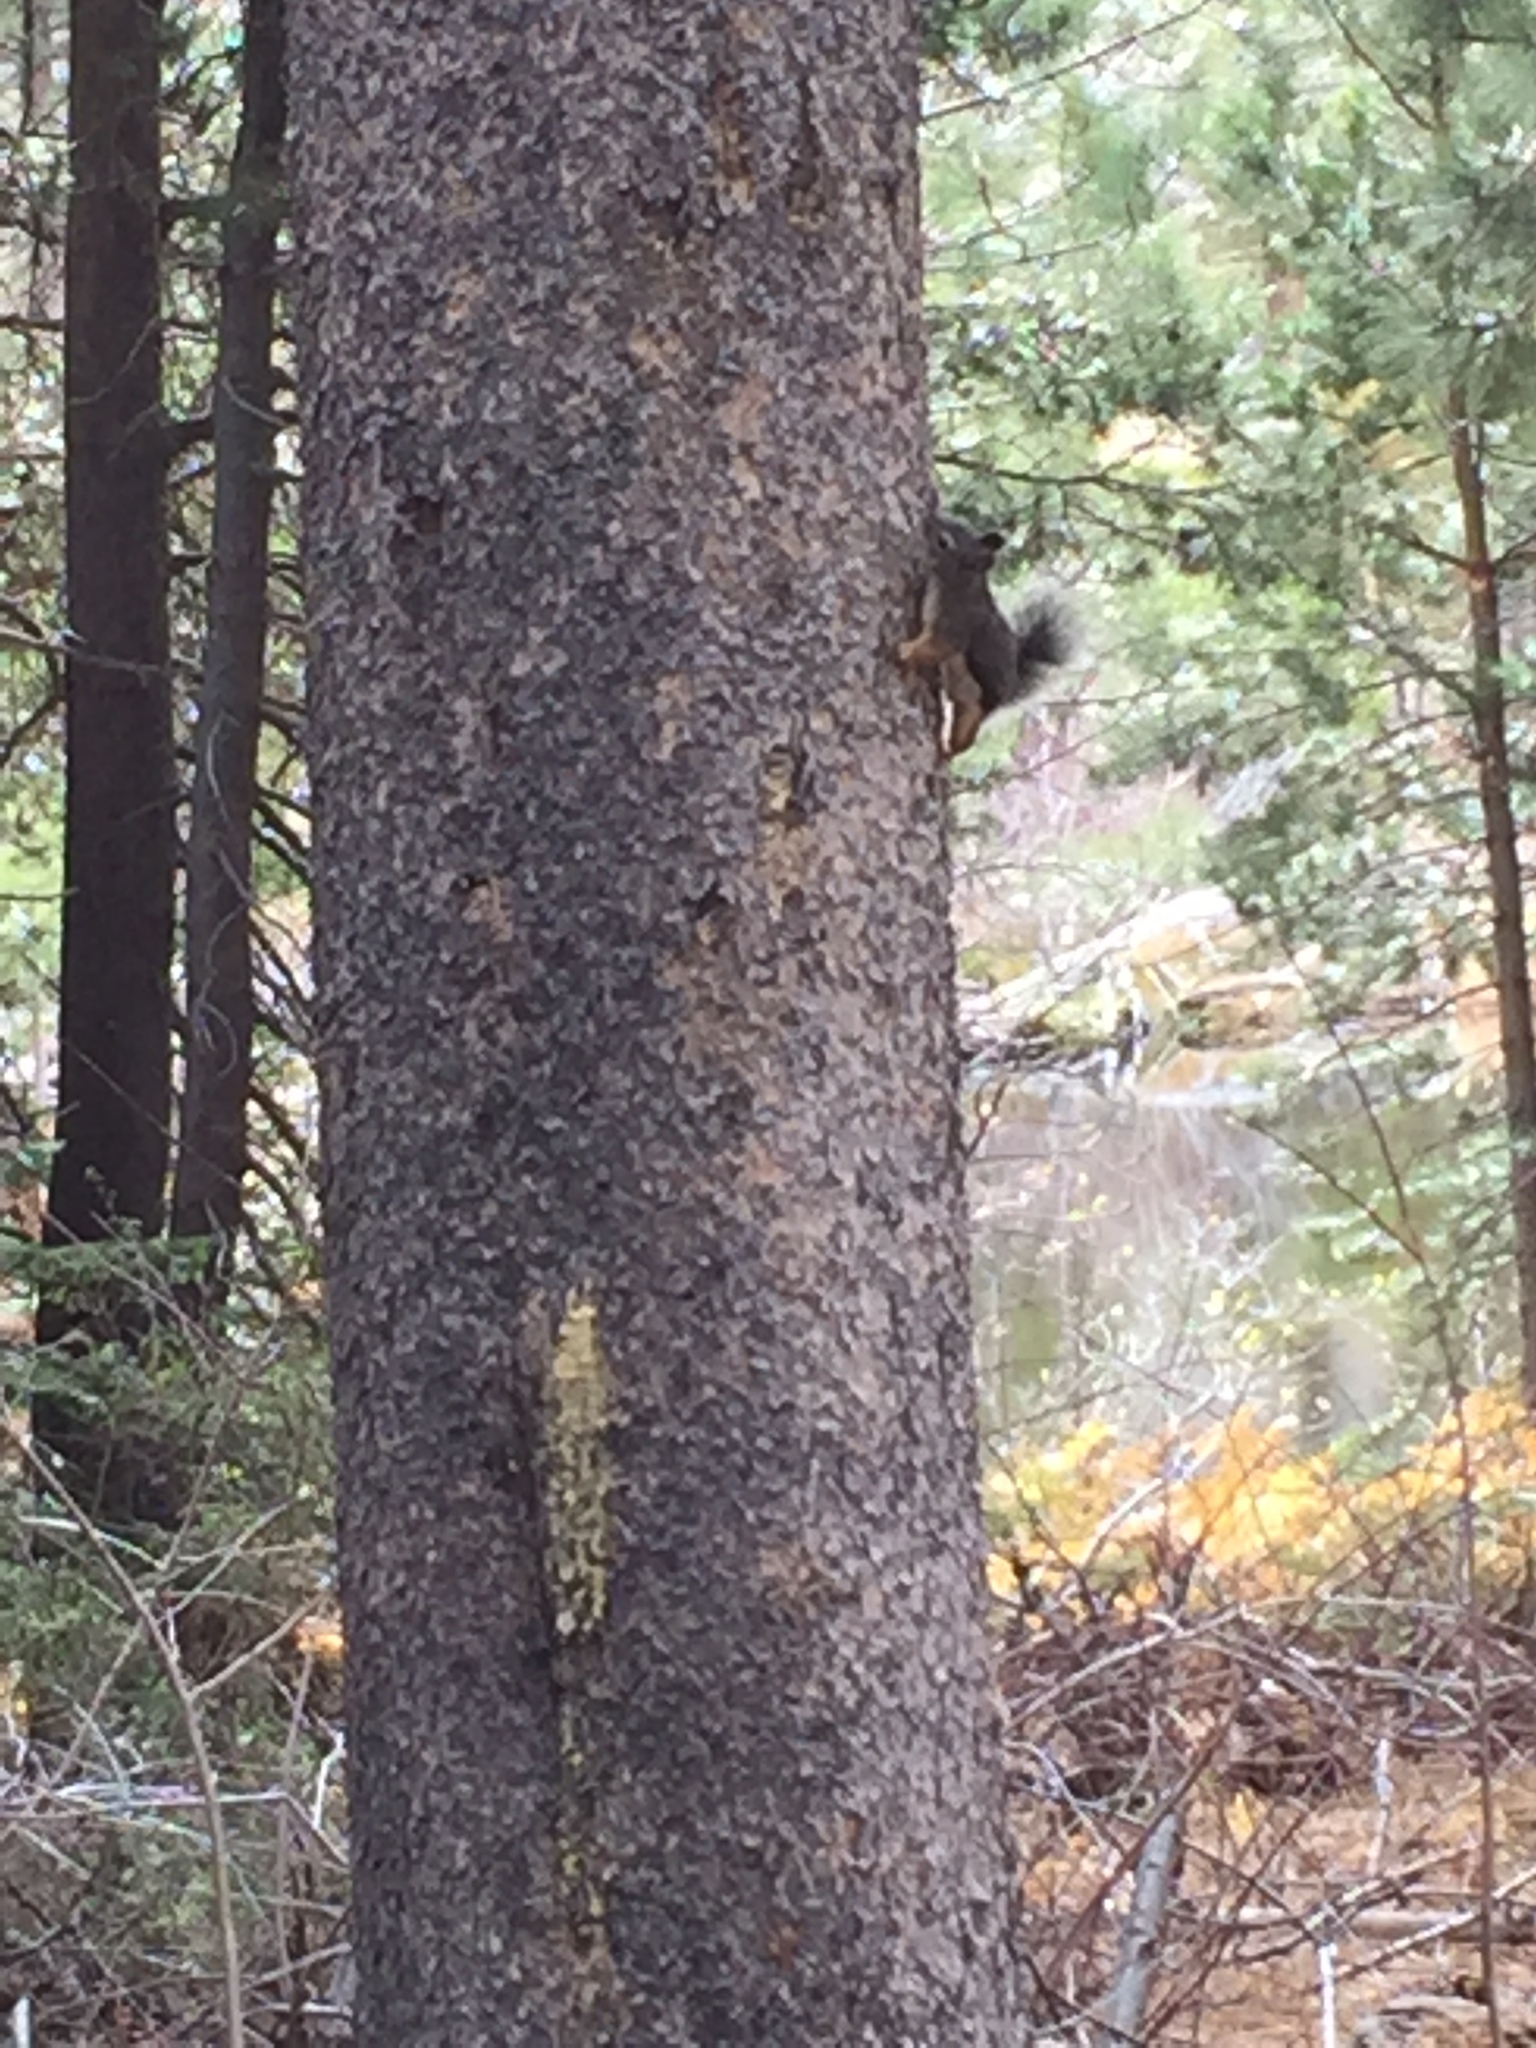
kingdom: Animalia
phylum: Chordata
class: Mammalia
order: Rodentia
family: Sciuridae
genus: Tamiasciurus
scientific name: Tamiasciurus douglasii
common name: Douglas's squirrel
